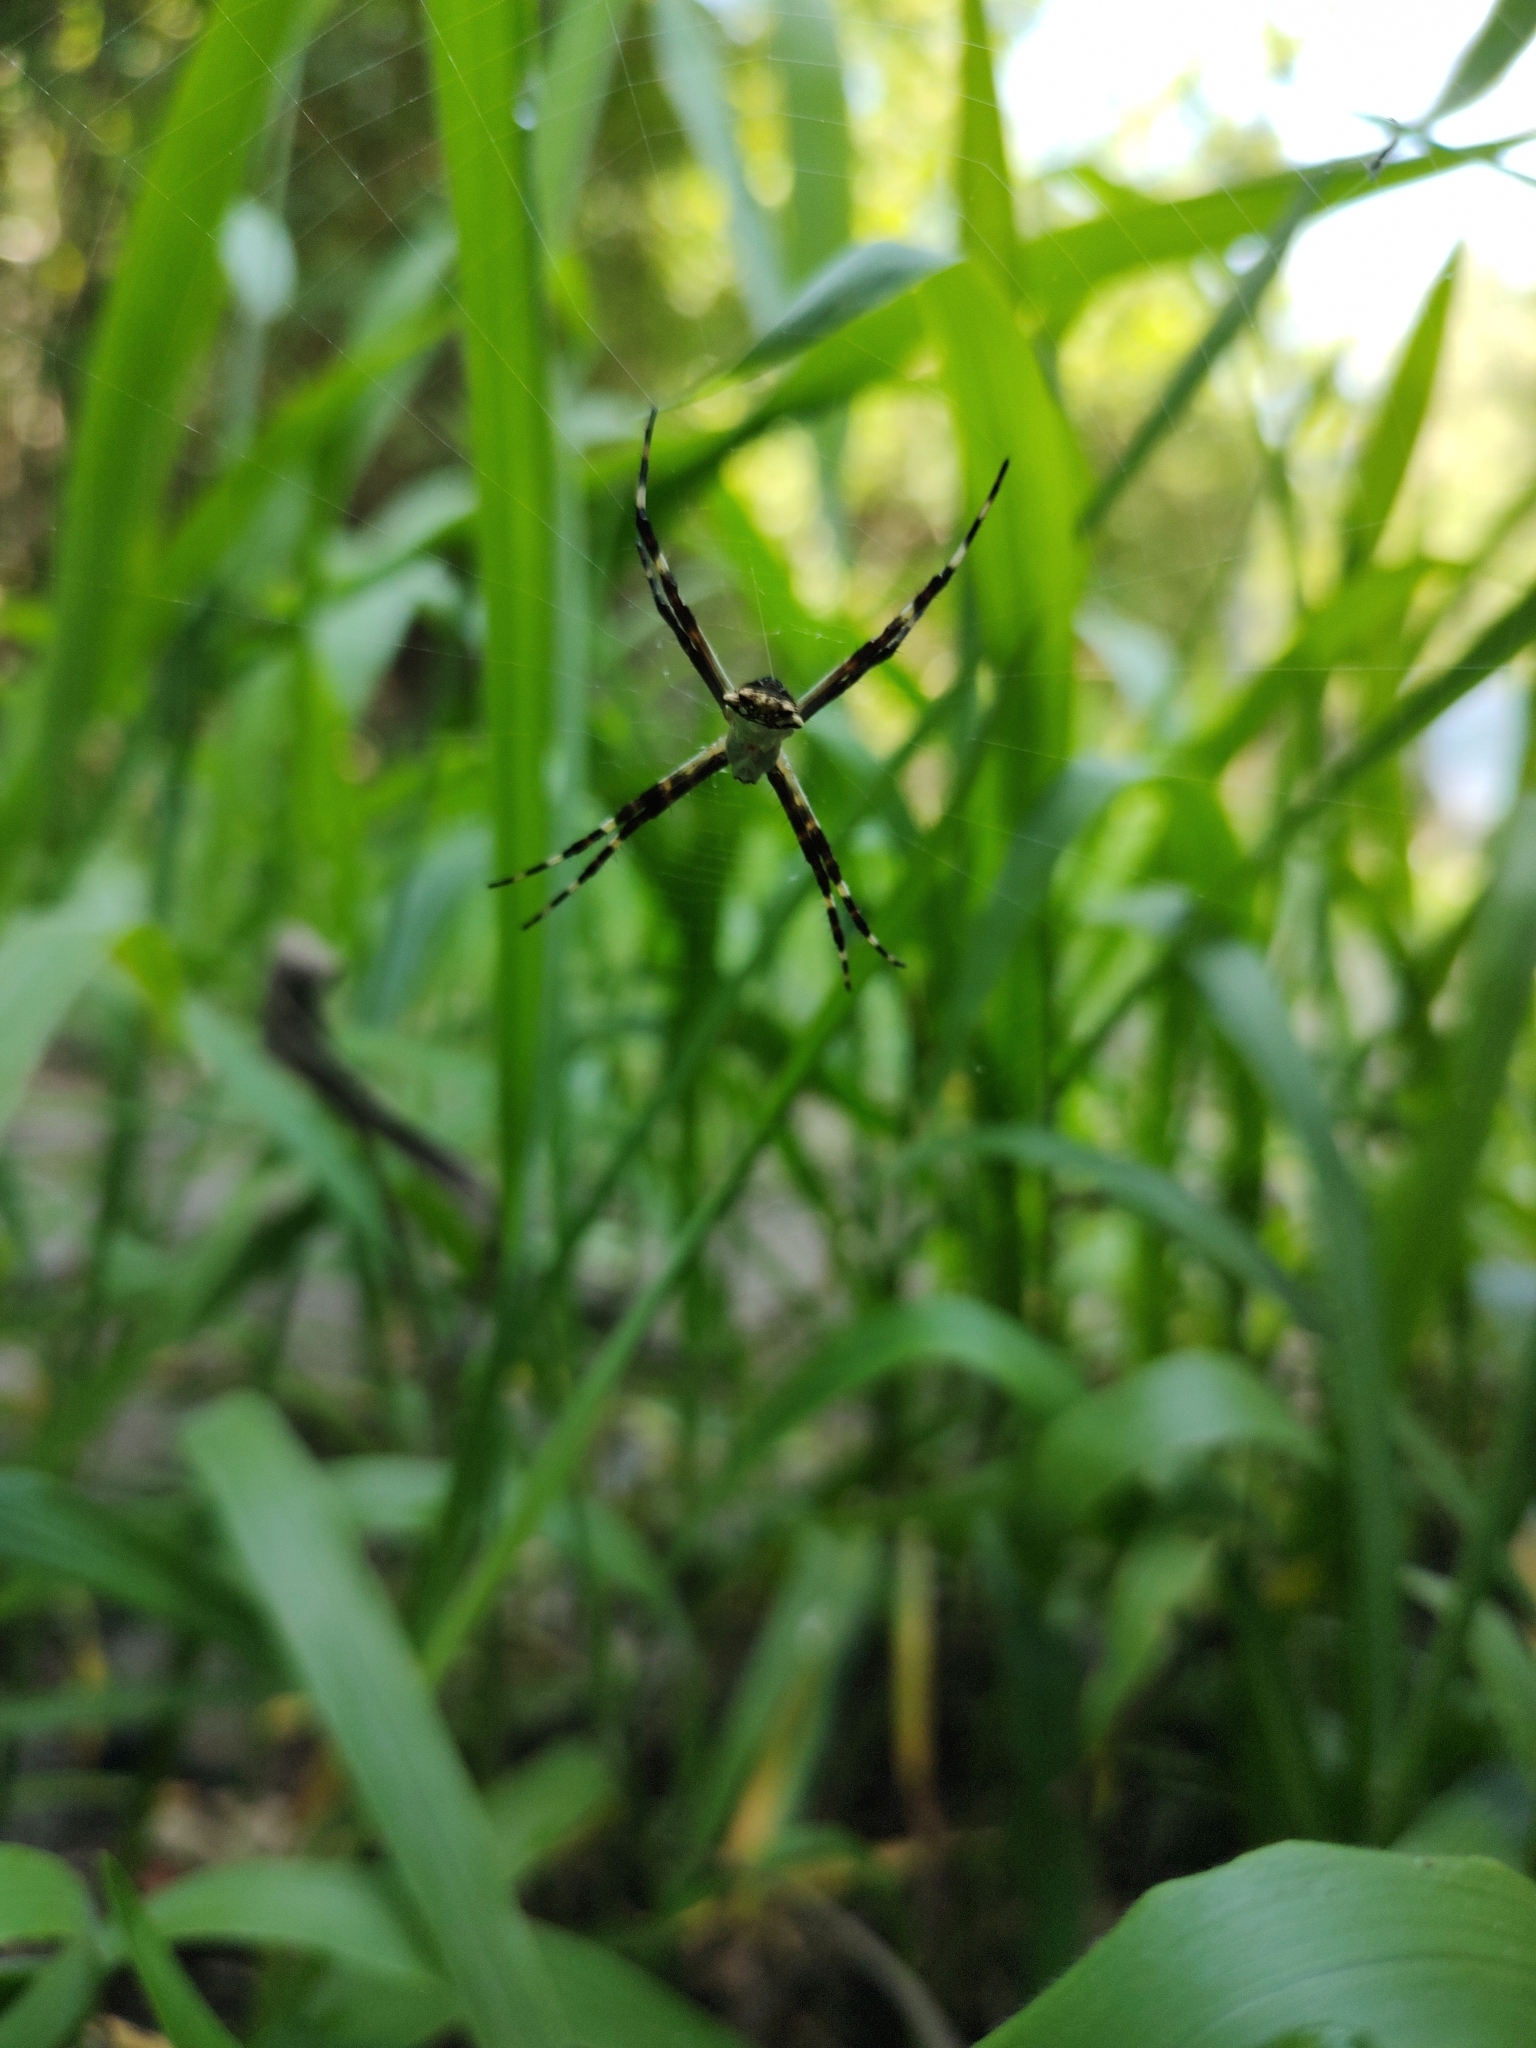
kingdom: Animalia
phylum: Arthropoda
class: Arachnida
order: Araneae
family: Araneidae
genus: Argiope
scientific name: Argiope argentata
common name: Orb weavers
